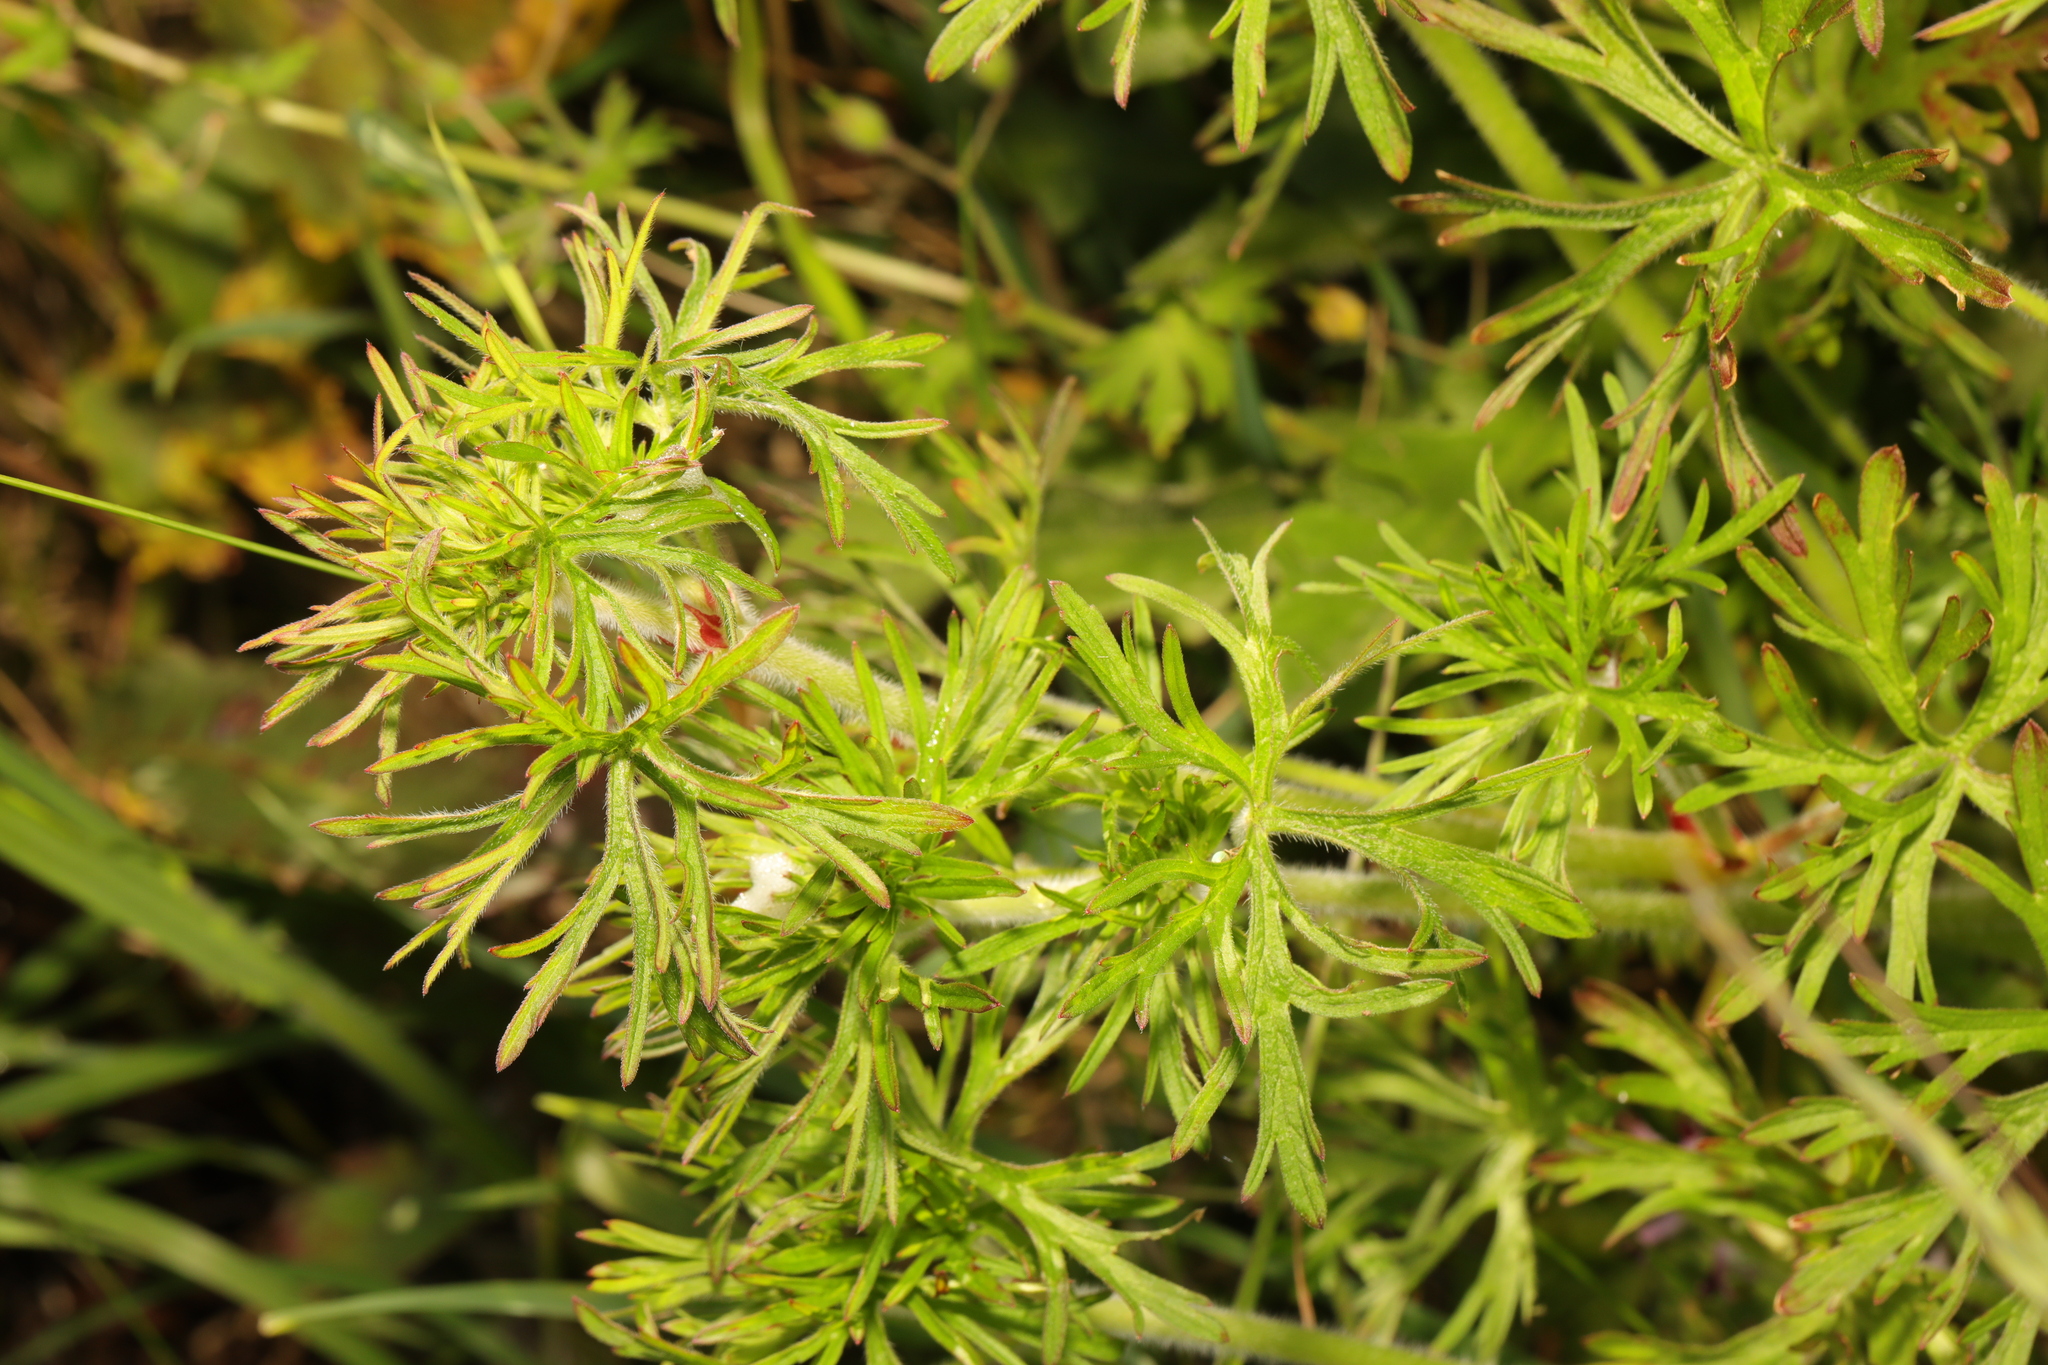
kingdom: Plantae
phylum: Tracheophyta
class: Magnoliopsida
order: Geraniales
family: Geraniaceae
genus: Geranium
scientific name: Geranium dissectum
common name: Cut-leaved crane's-bill
